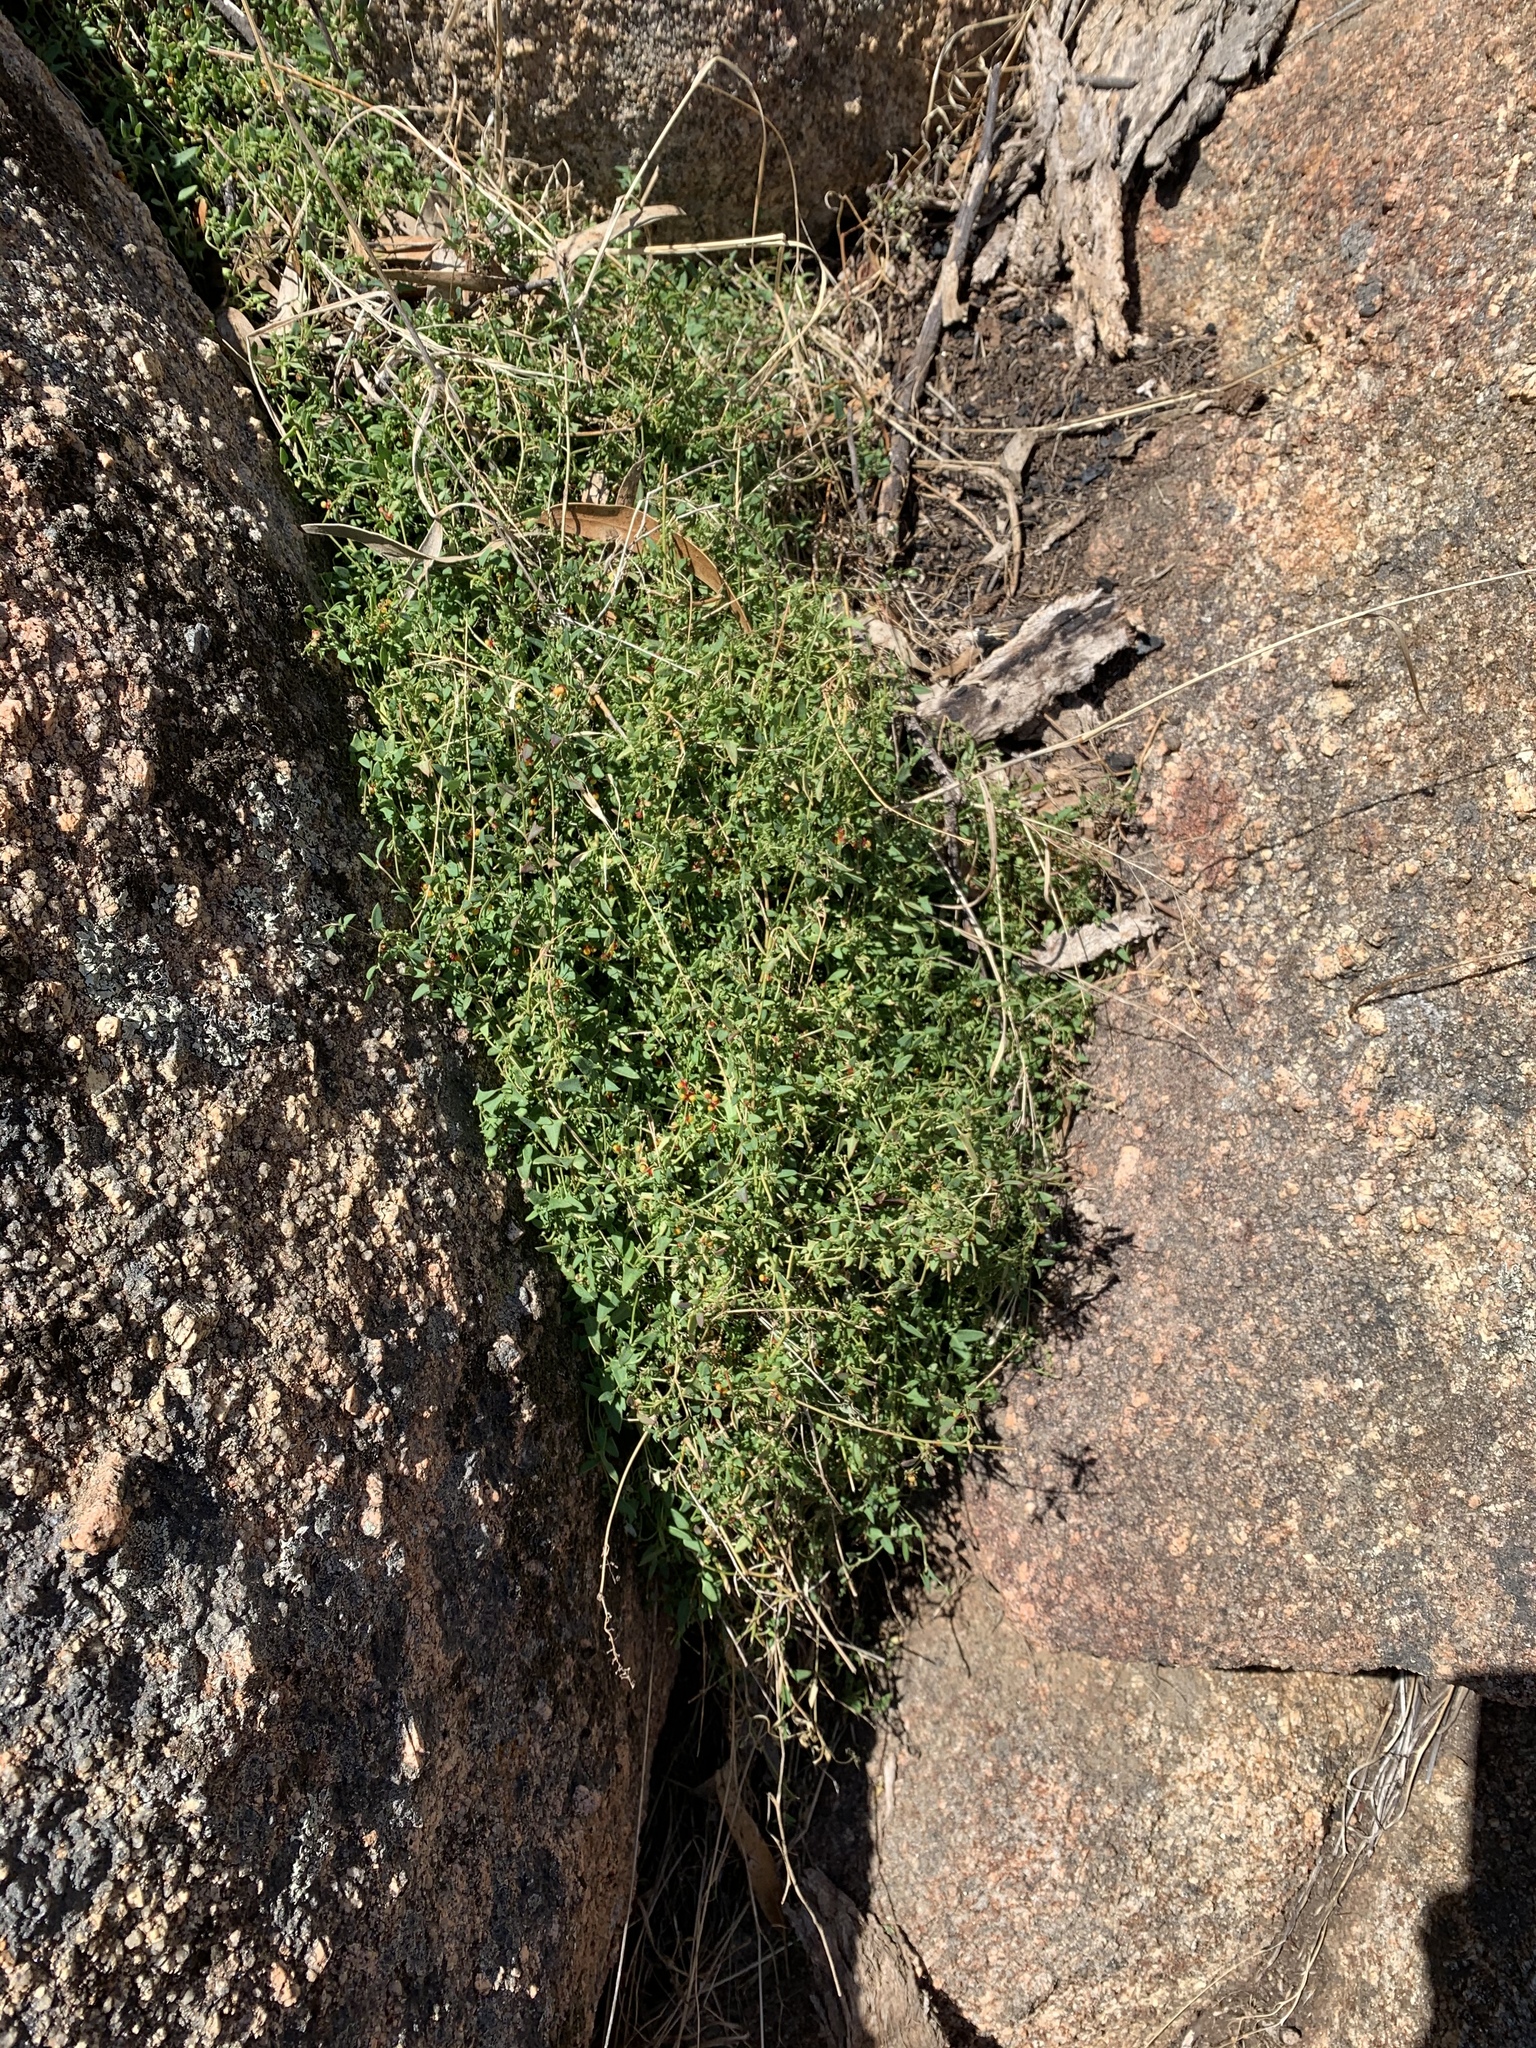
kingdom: Plantae
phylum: Tracheophyta
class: Magnoliopsida
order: Caryophyllales
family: Amaranthaceae
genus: Chenopodium
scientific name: Chenopodium nutans
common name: Climbing-saltbush
